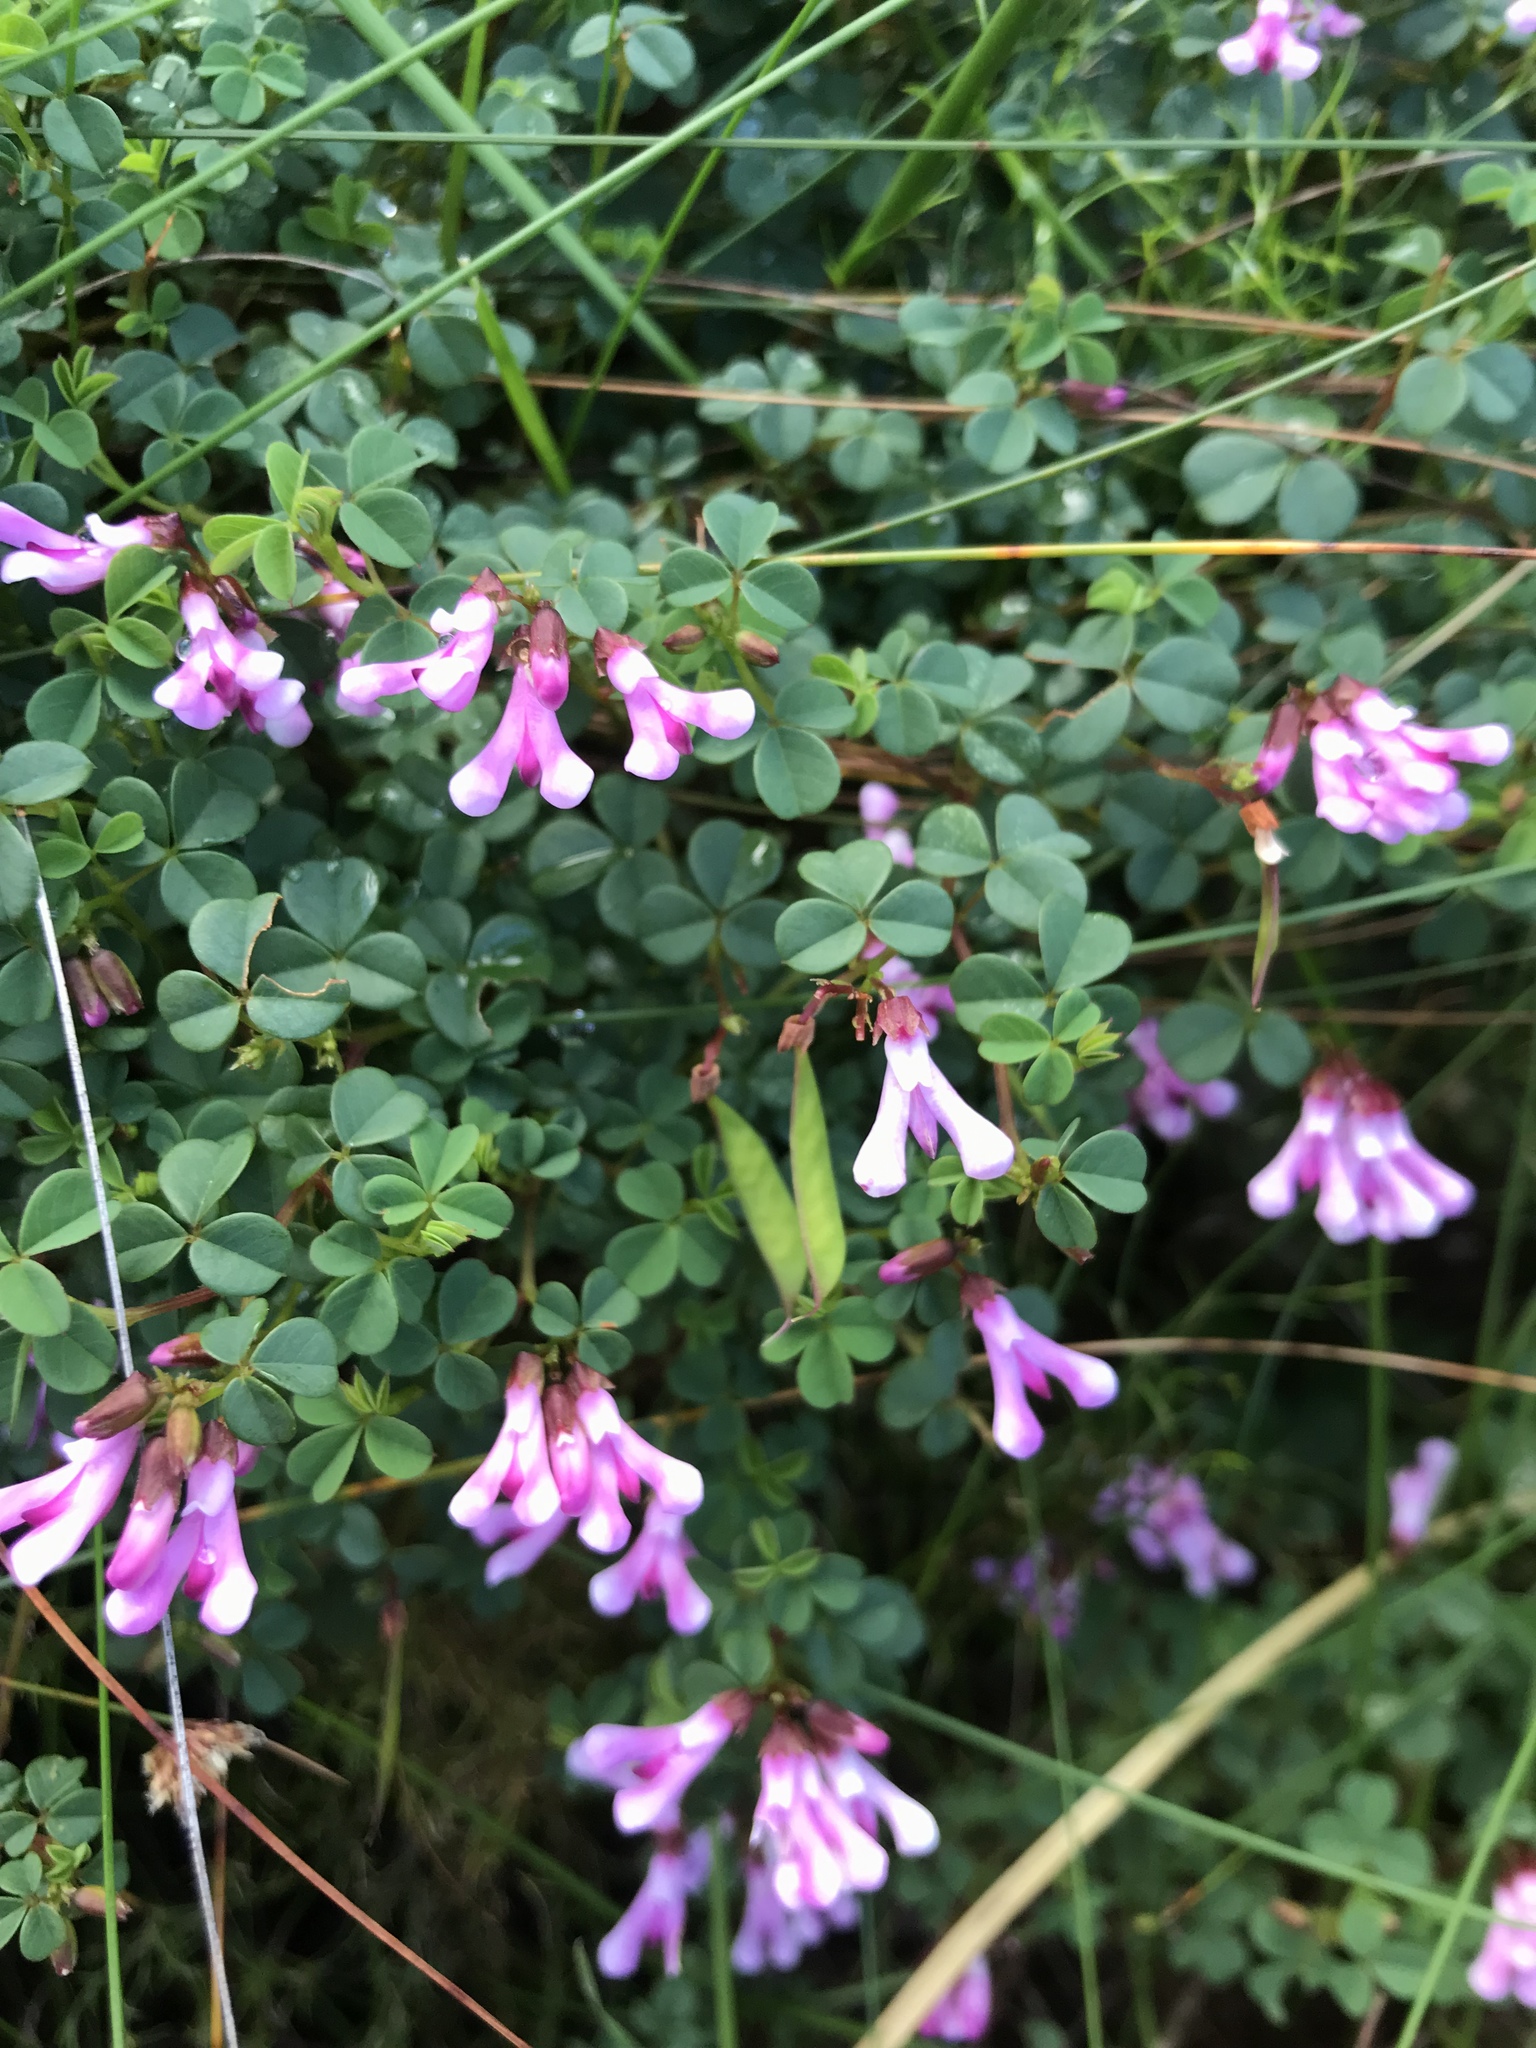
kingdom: Plantae
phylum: Tracheophyta
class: Magnoliopsida
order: Fabales
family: Fabaceae
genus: Hypocalyptus
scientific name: Hypocalyptus oxalidifolius
